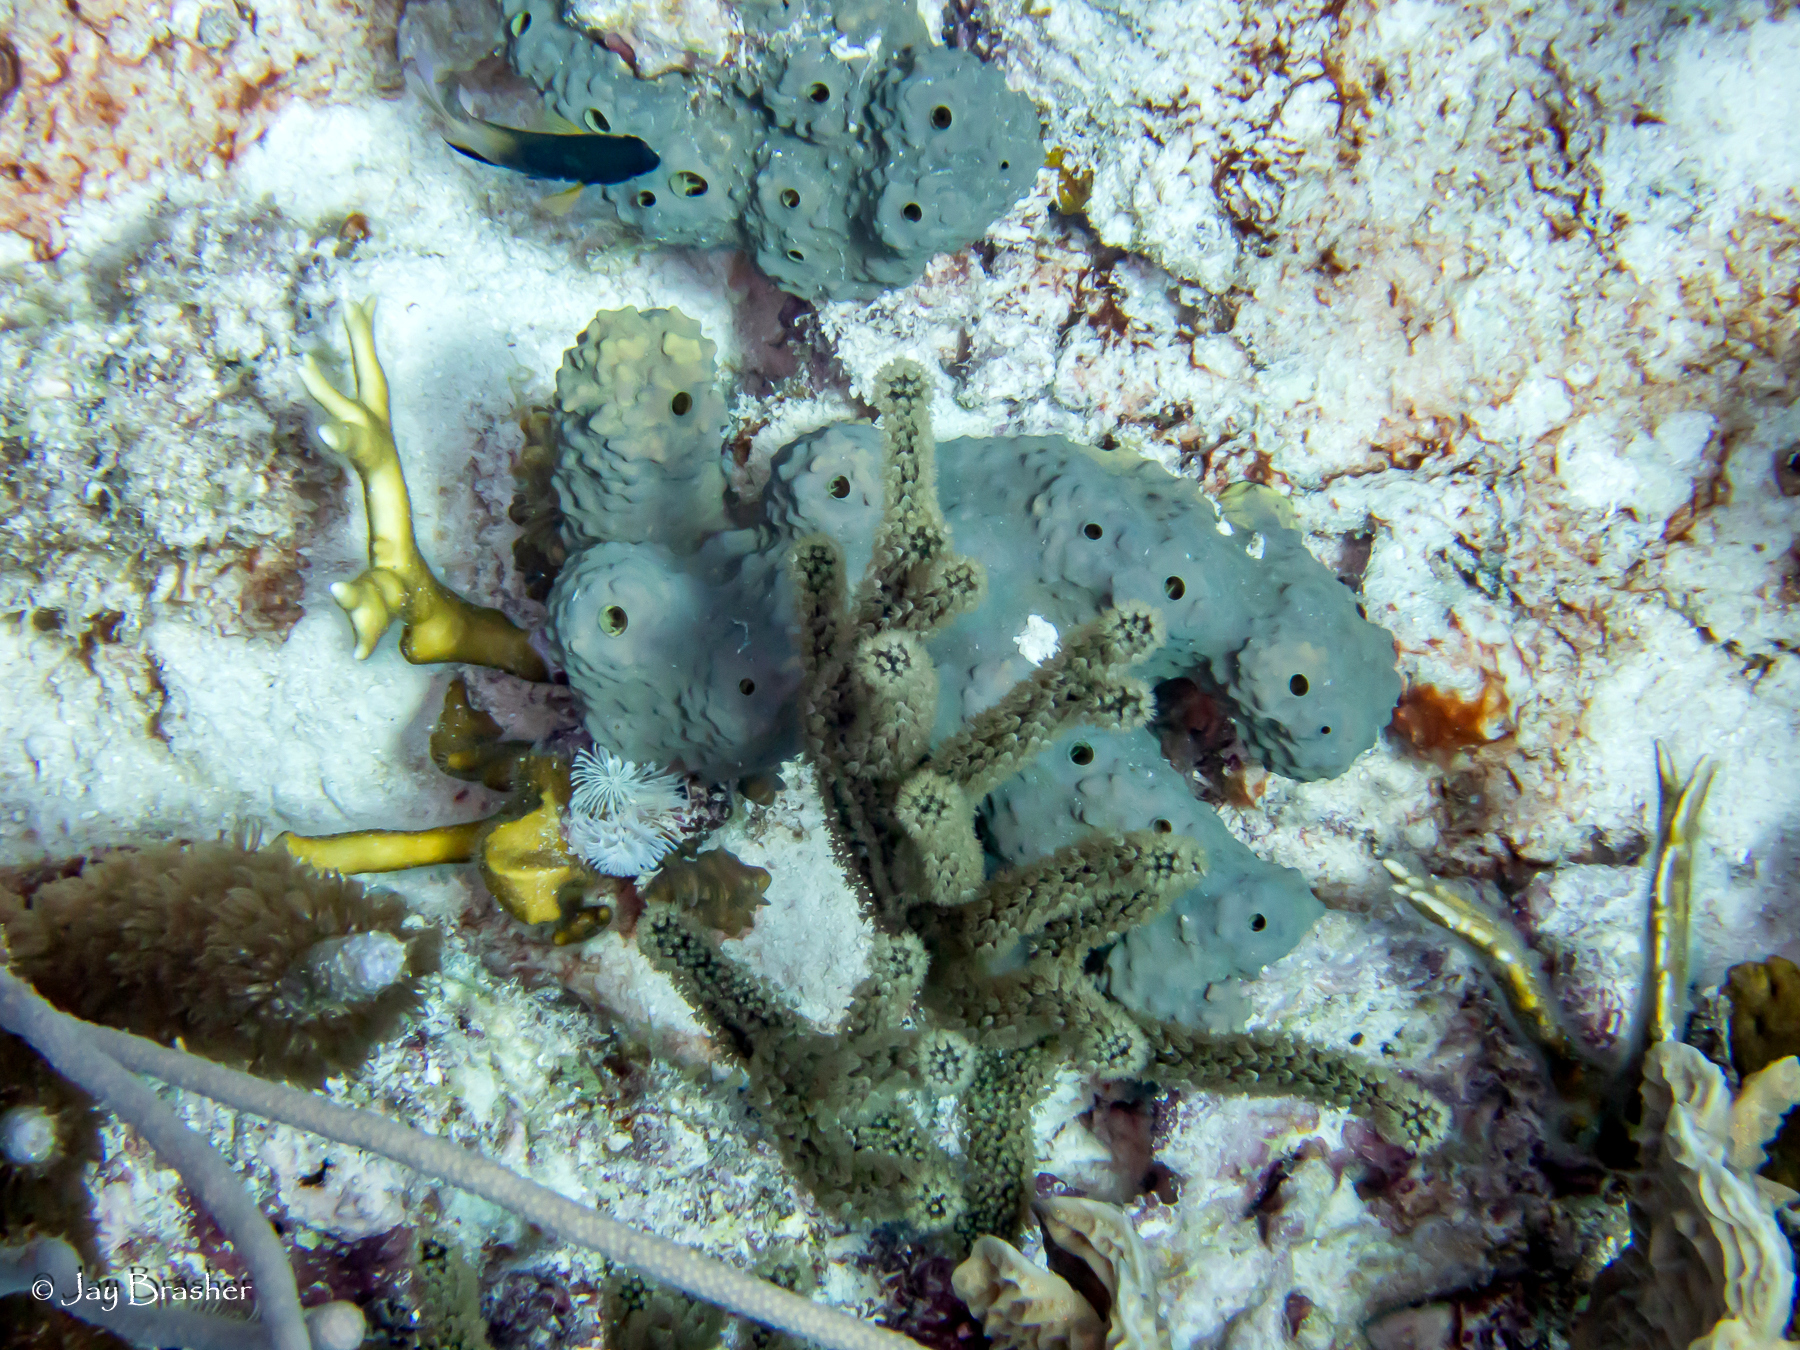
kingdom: Animalia
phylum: Porifera
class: Demospongiae
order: Verongiida
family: Aplysinidae
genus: Aiolochroia
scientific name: Aiolochroia crassa
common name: Branching tube sponge
